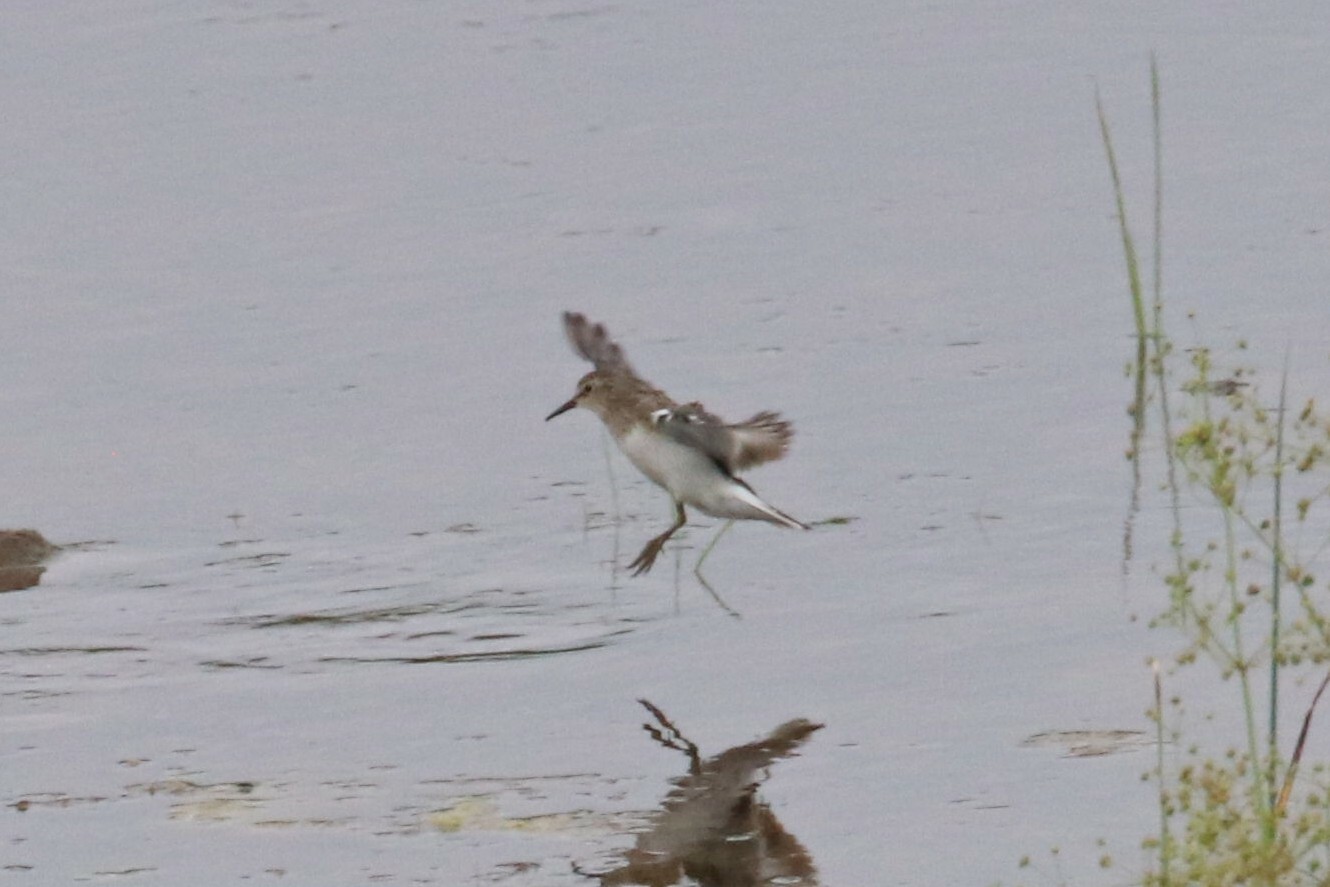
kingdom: Animalia
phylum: Chordata
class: Aves
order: Charadriiformes
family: Scolopacidae
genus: Calidris
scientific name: Calidris temminckii
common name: Temminck's stint
